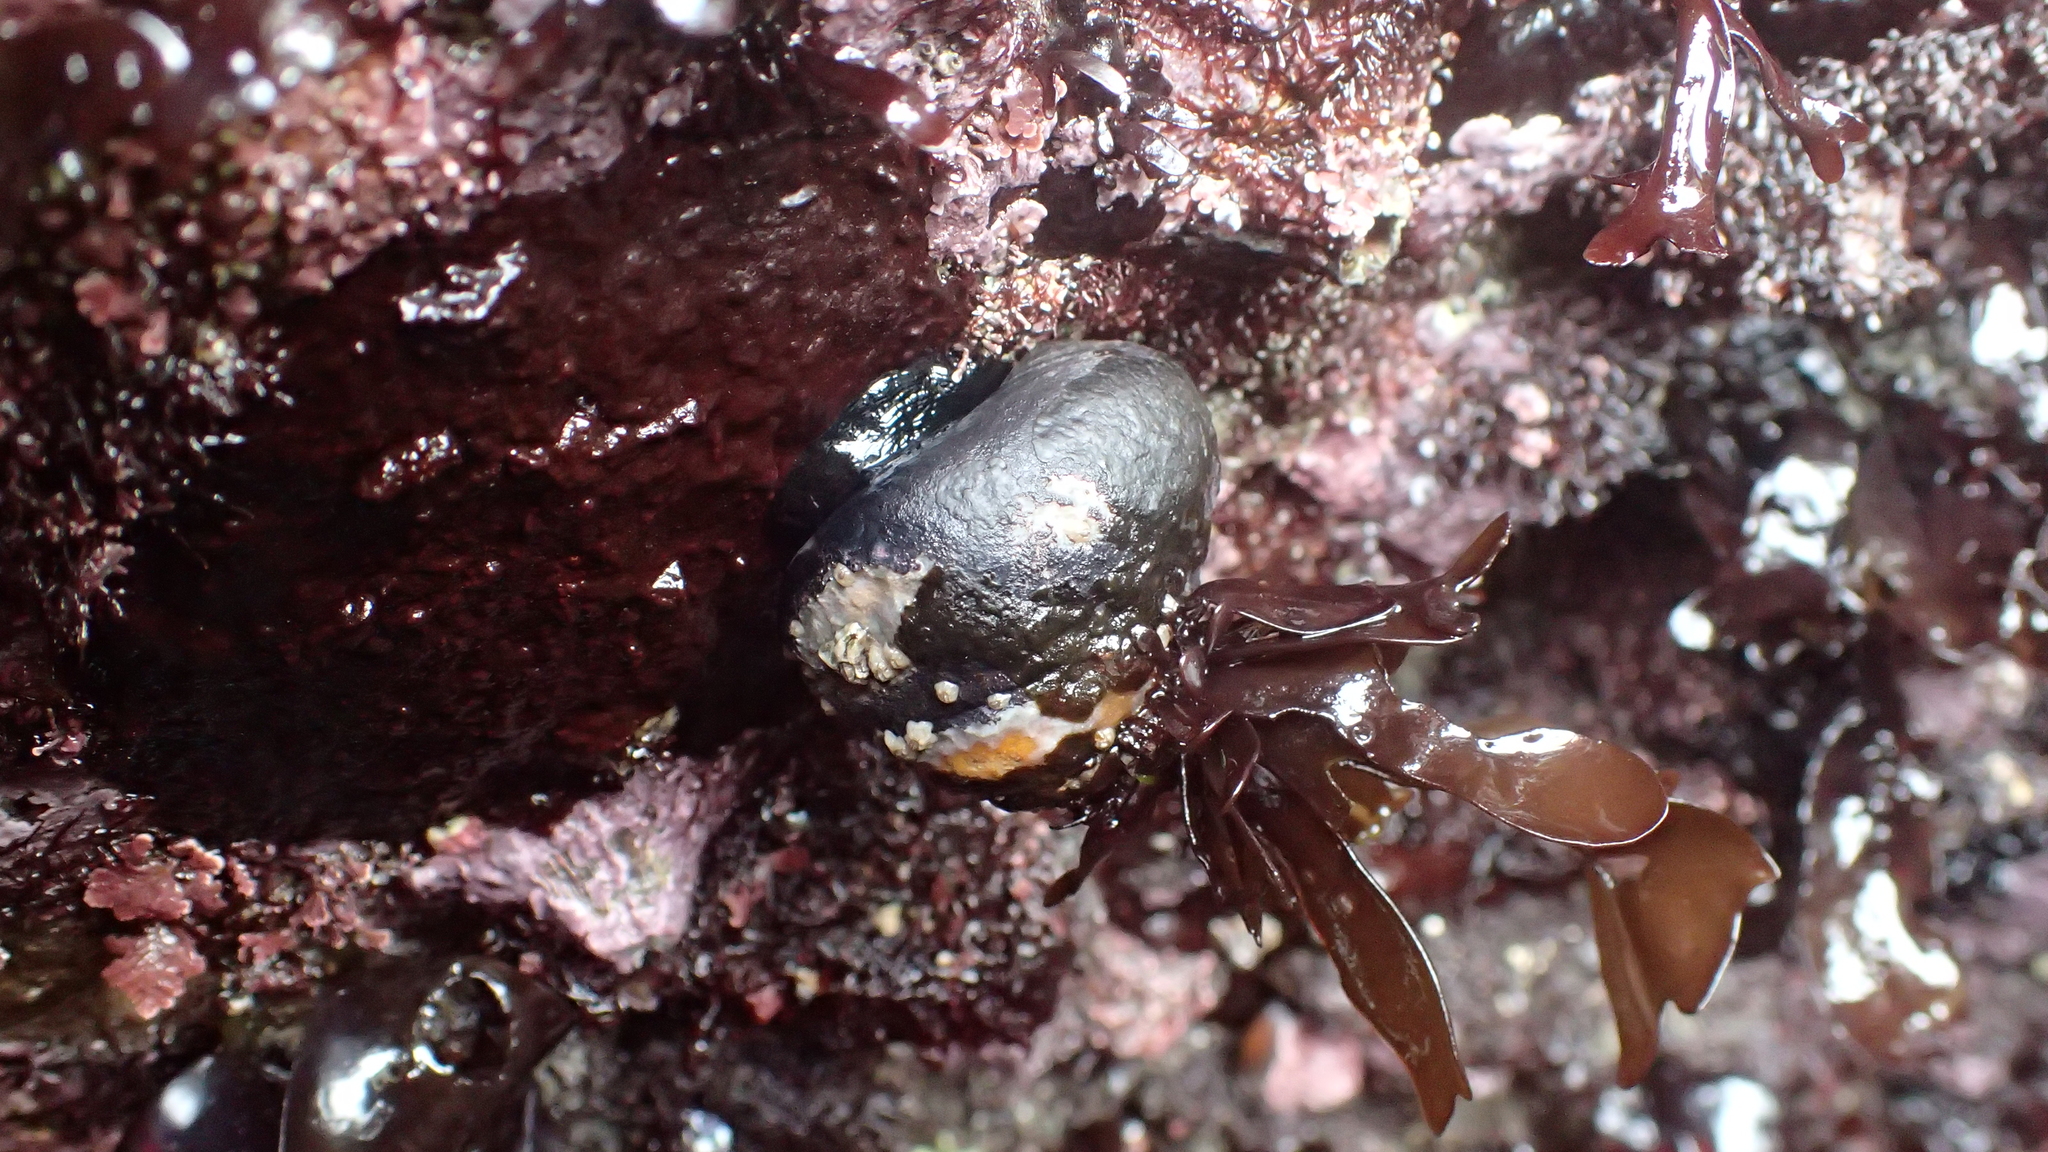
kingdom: Animalia
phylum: Mollusca
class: Gastropoda
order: Trochida
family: Tegulidae
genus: Tegula
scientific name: Tegula funebralis
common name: Black tegula
